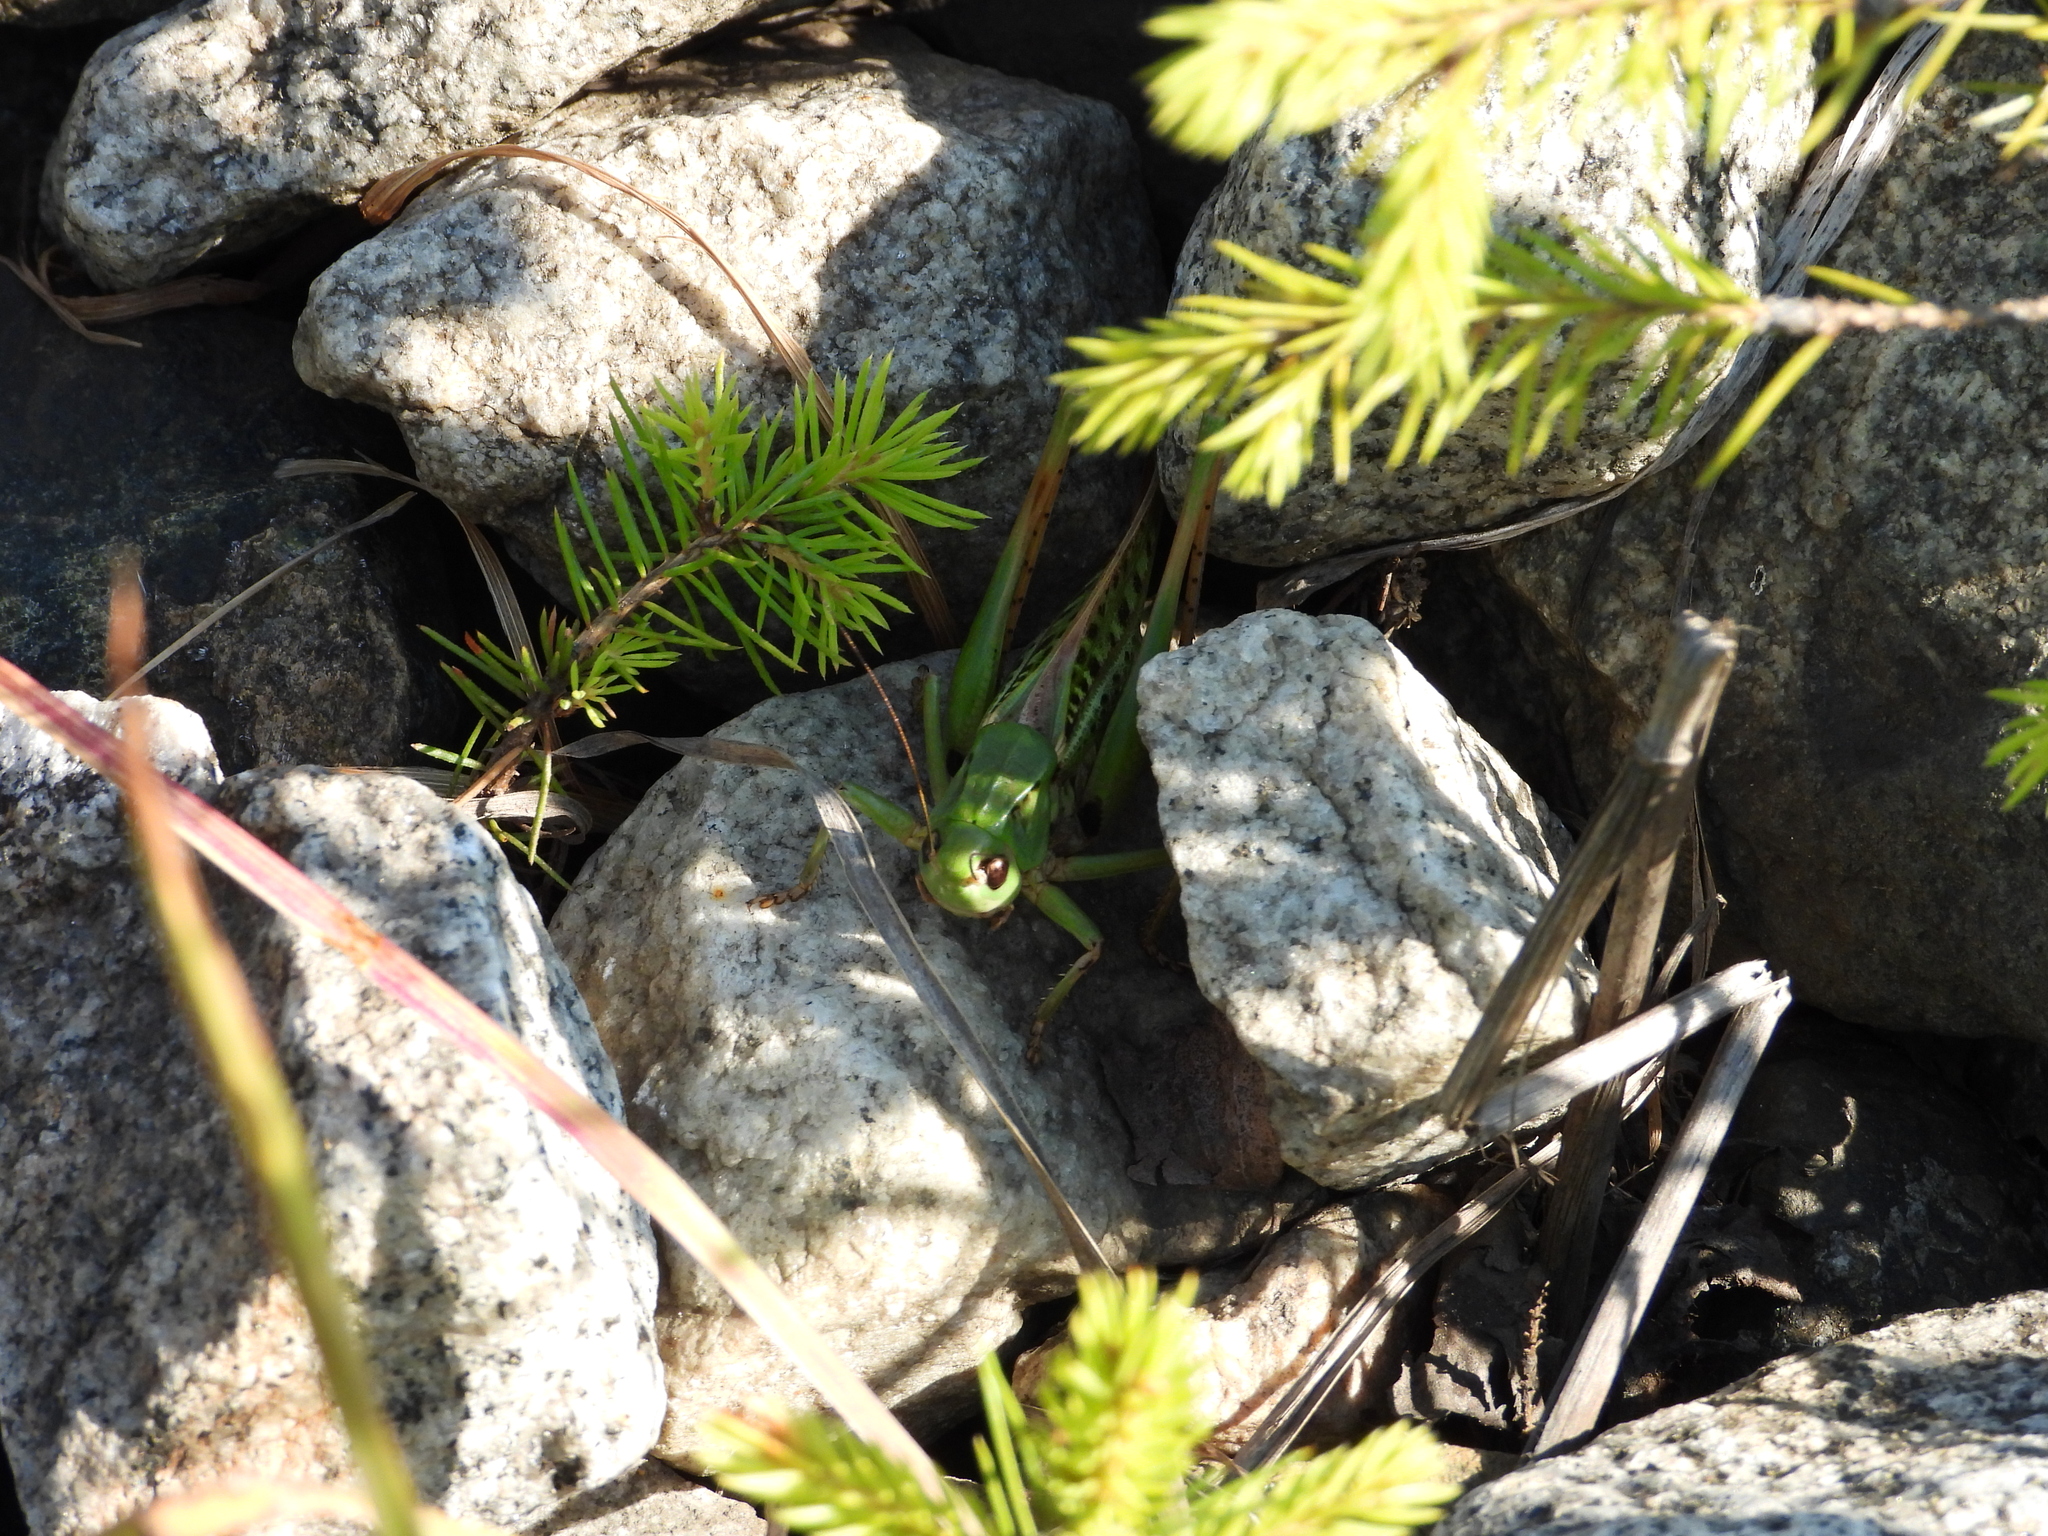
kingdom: Animalia
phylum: Arthropoda
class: Insecta
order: Orthoptera
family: Tettigoniidae
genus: Decticus
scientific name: Decticus verrucivorus
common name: Wart-biter
